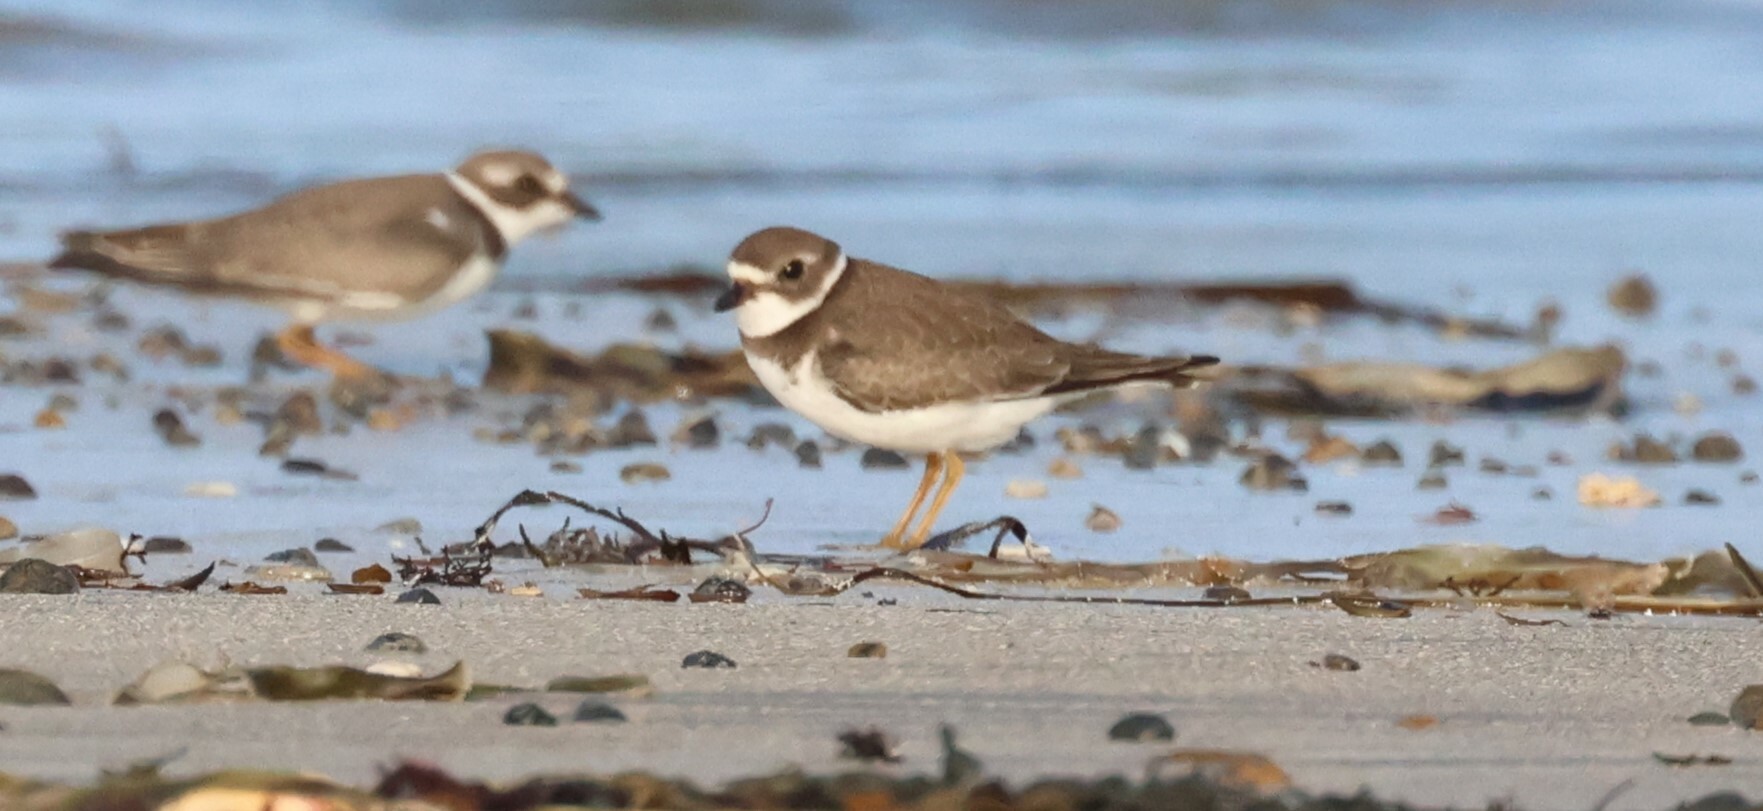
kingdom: Animalia
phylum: Chordata
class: Aves
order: Charadriiformes
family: Charadriidae
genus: Charadrius
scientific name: Charadrius semipalmatus
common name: Semipalmated plover
